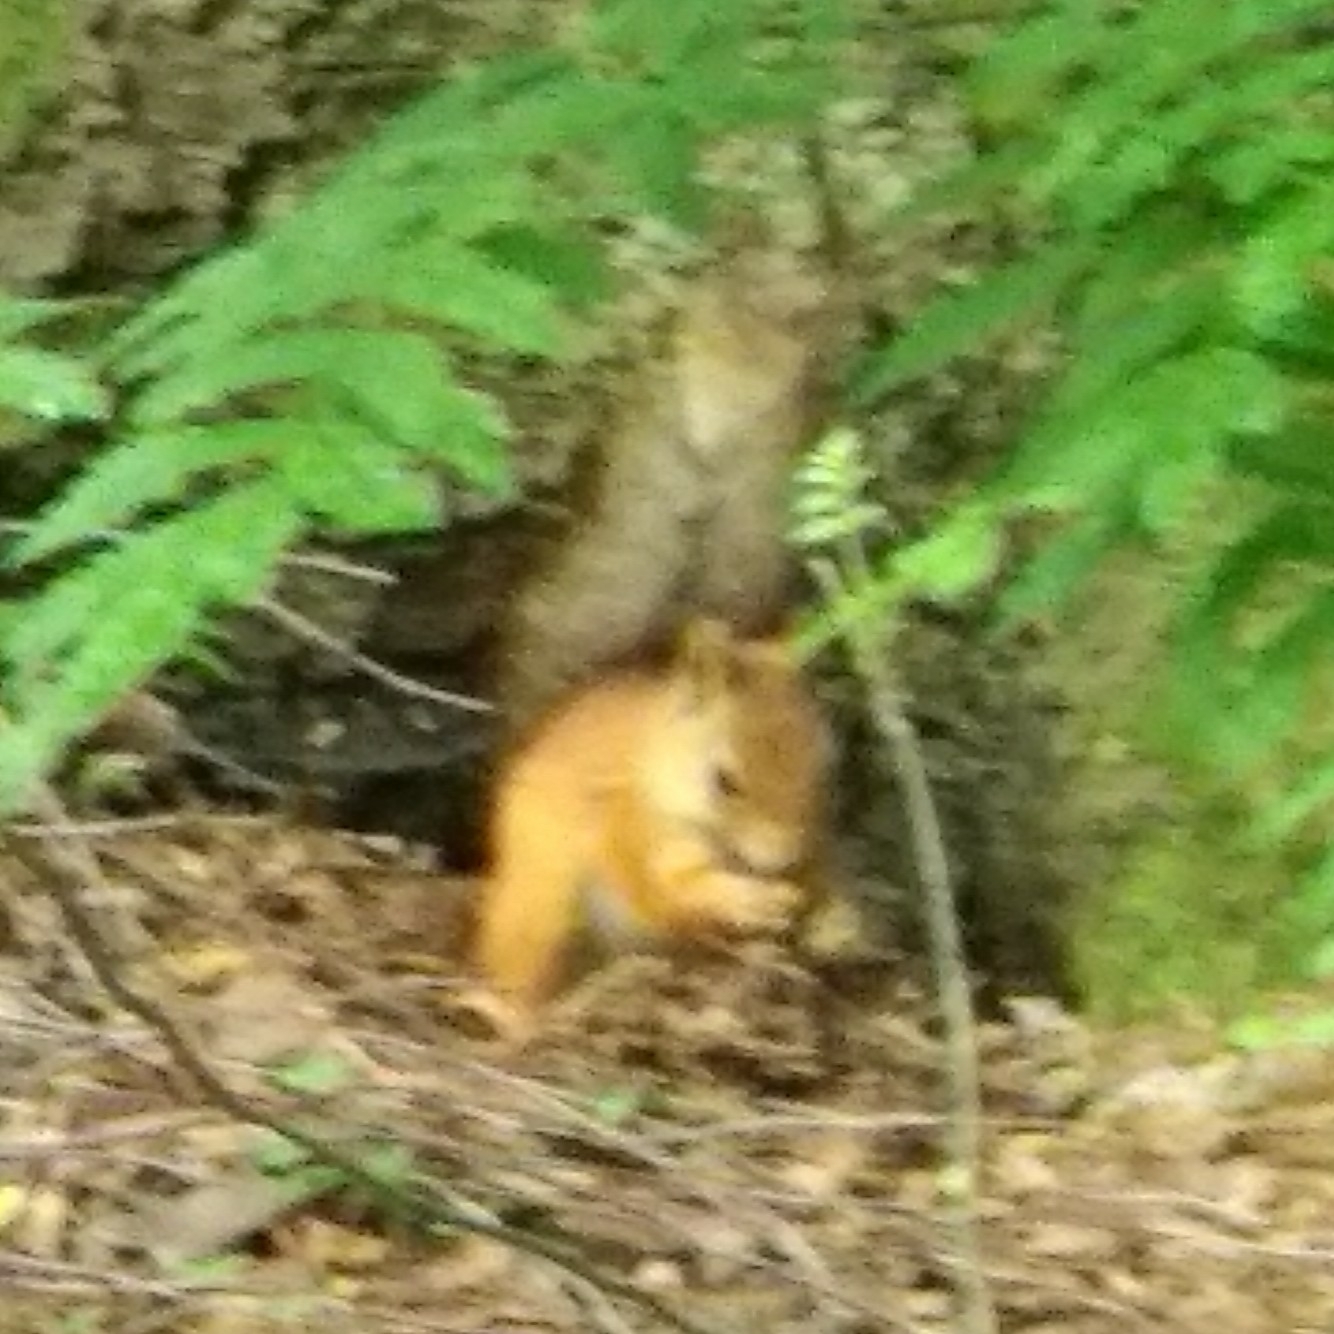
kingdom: Animalia
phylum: Chordata
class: Mammalia
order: Rodentia
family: Sciuridae
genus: Sciurus
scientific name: Sciurus vulgaris
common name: Eurasian red squirrel
